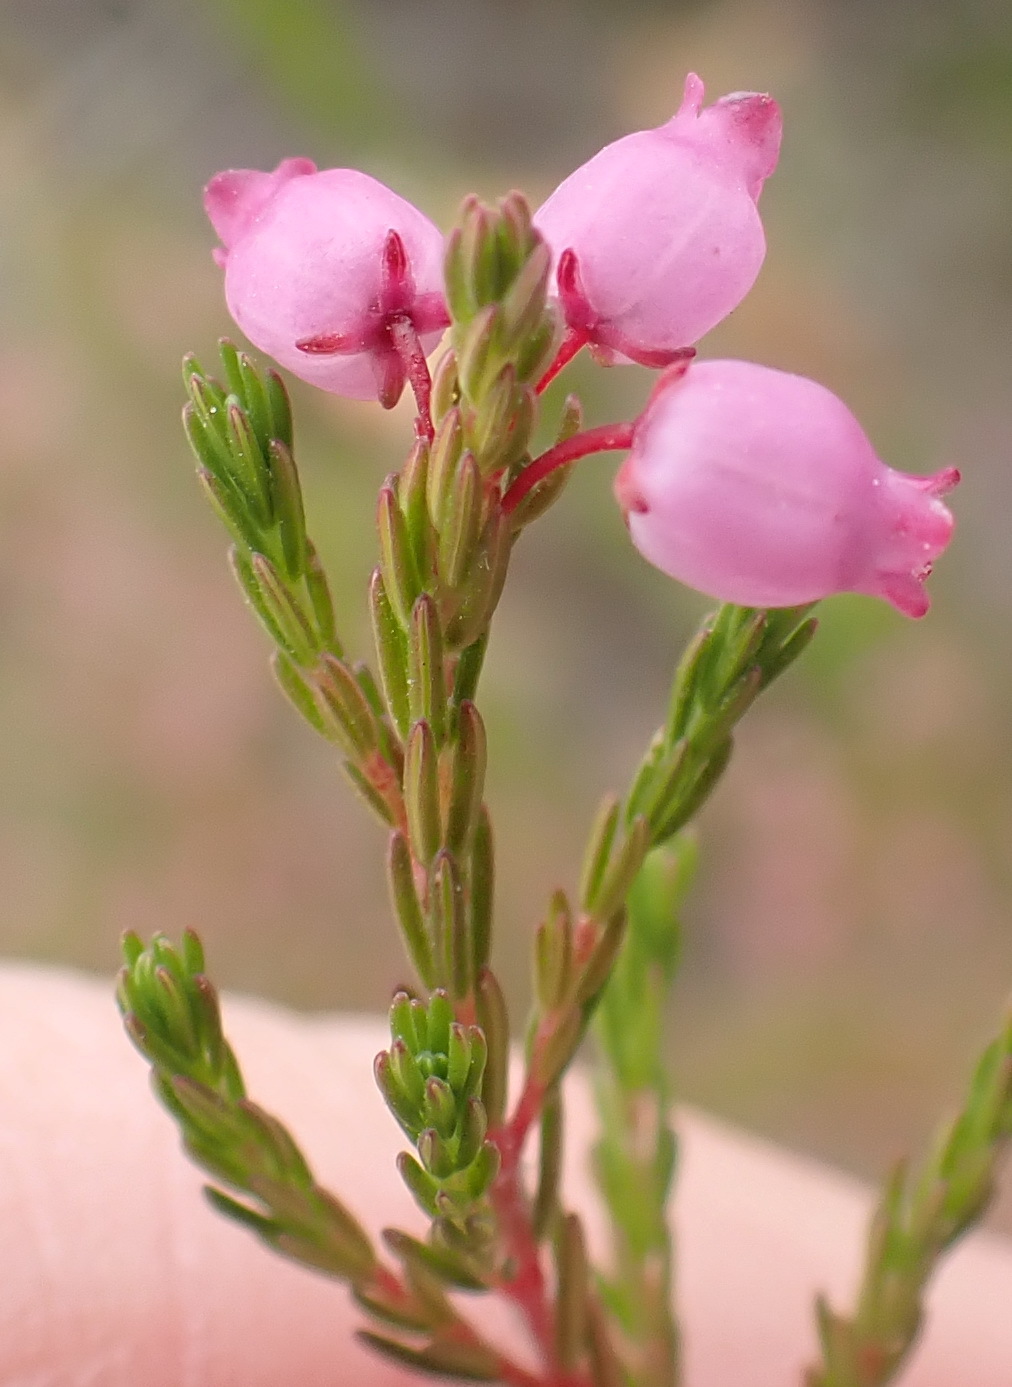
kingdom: Plantae
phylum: Tracheophyta
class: Magnoliopsida
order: Ericales
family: Ericaceae
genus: Erica
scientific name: Erica gracilis
